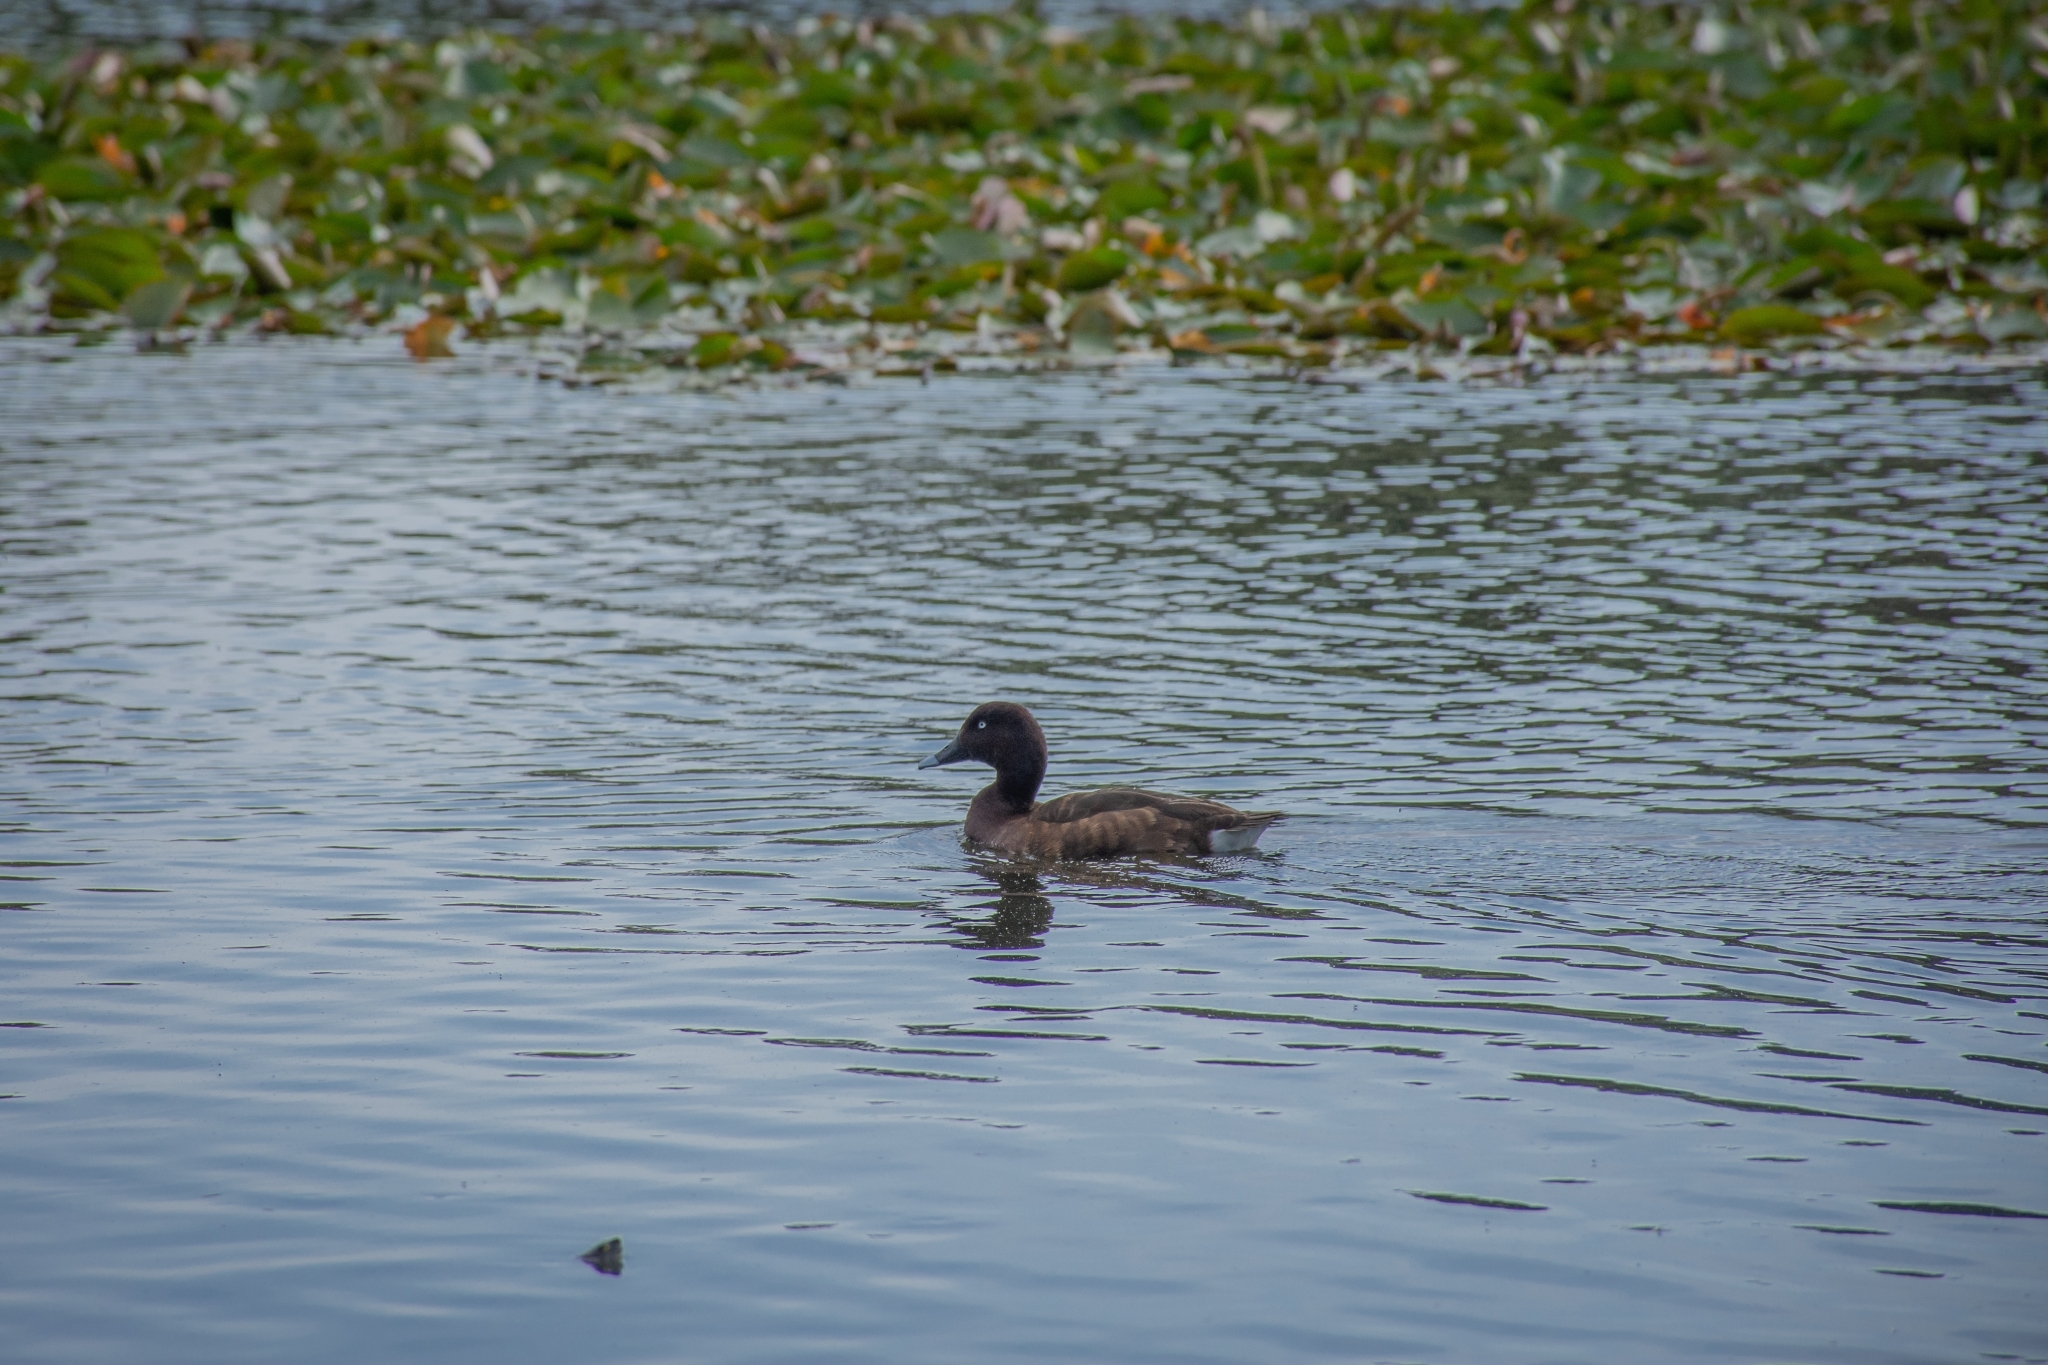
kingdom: Animalia
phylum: Chordata
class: Aves
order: Anseriformes
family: Anatidae
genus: Aythya
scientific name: Aythya australis
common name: Hardhead
